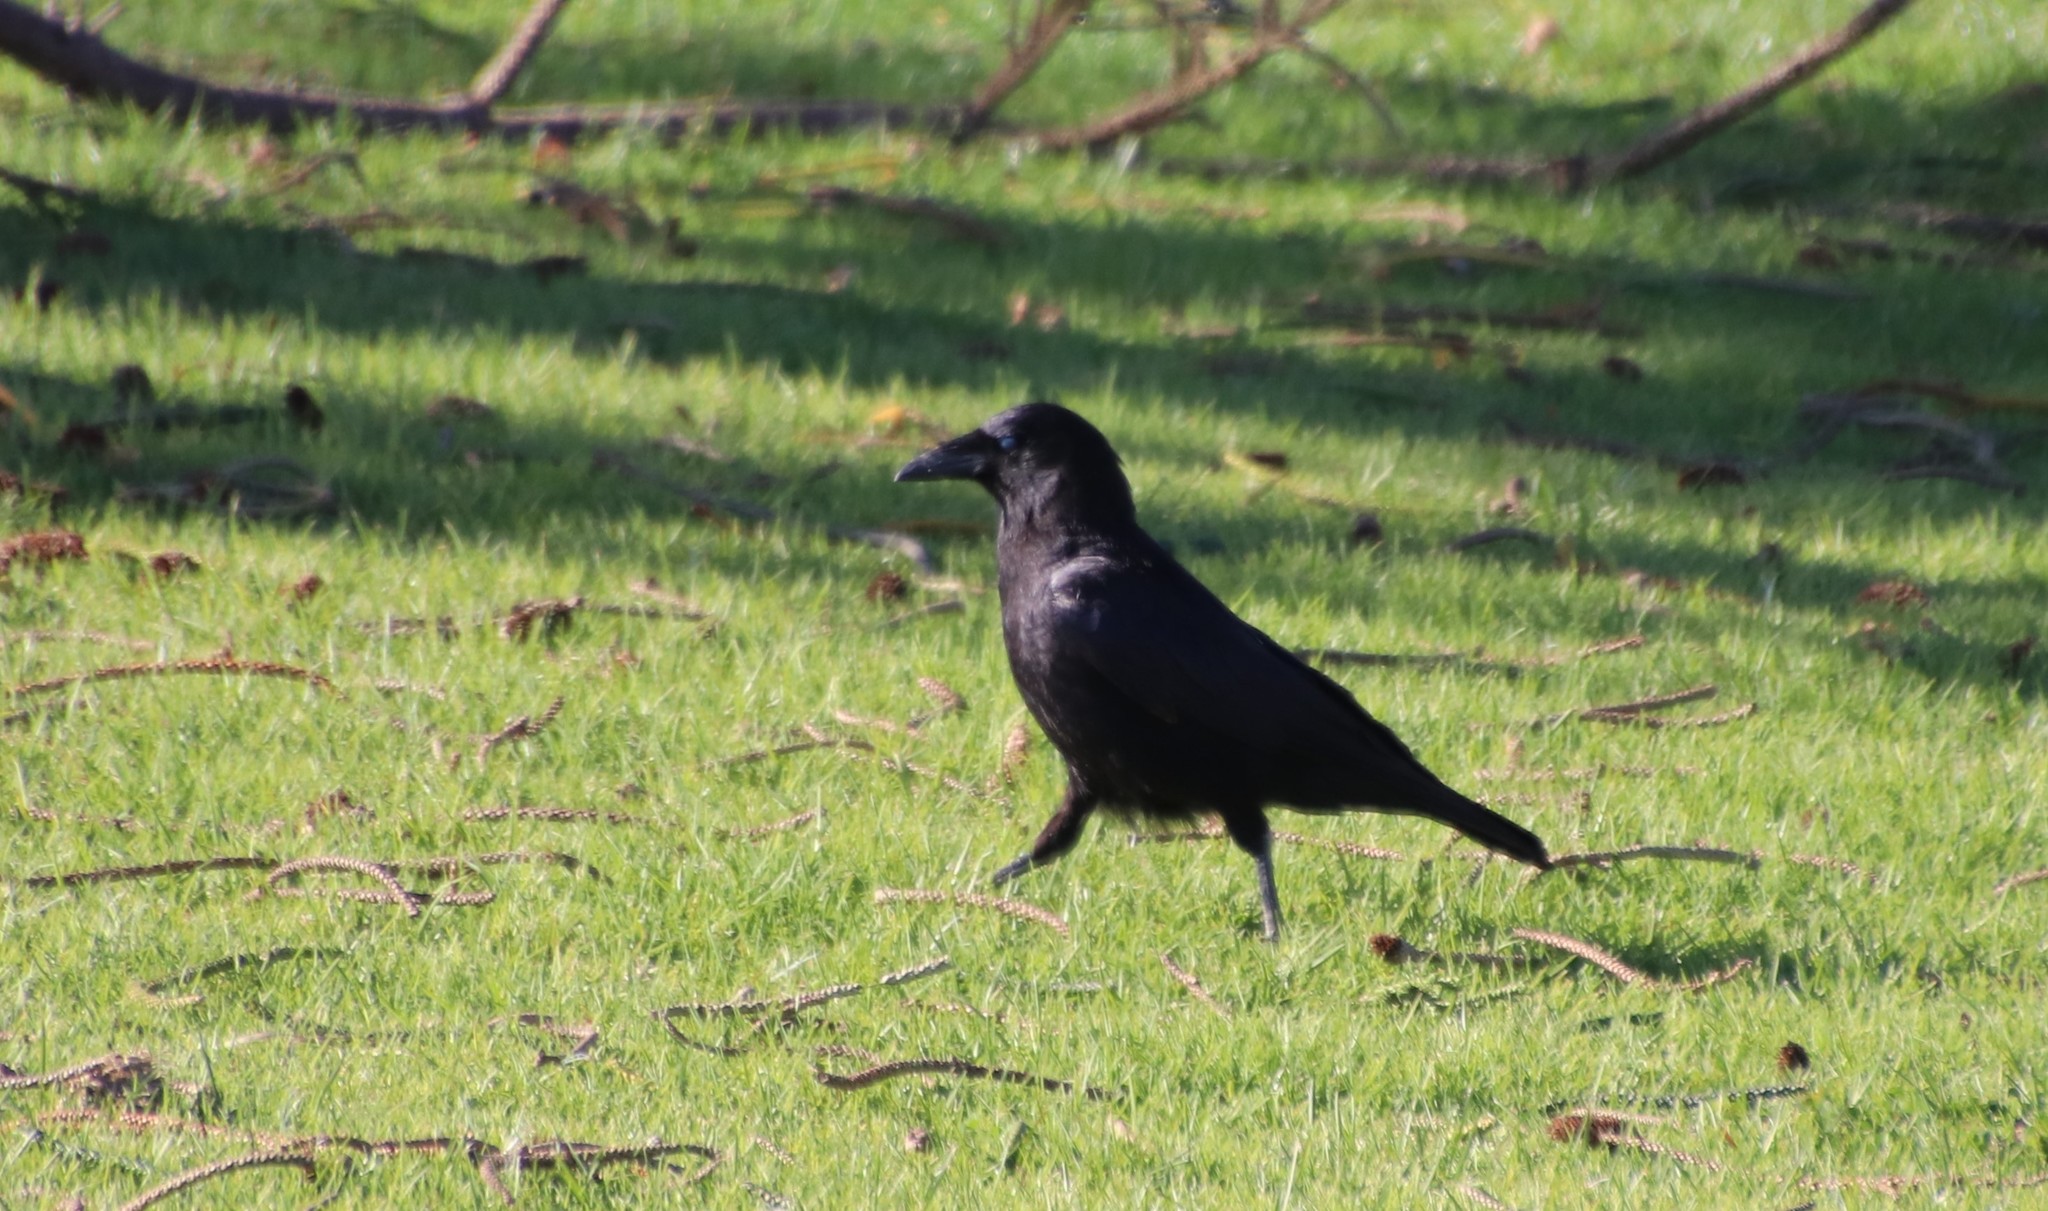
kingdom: Animalia
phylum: Chordata
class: Aves
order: Passeriformes
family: Corvidae
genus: Corvus
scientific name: Corvus brachyrhynchos
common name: American crow
